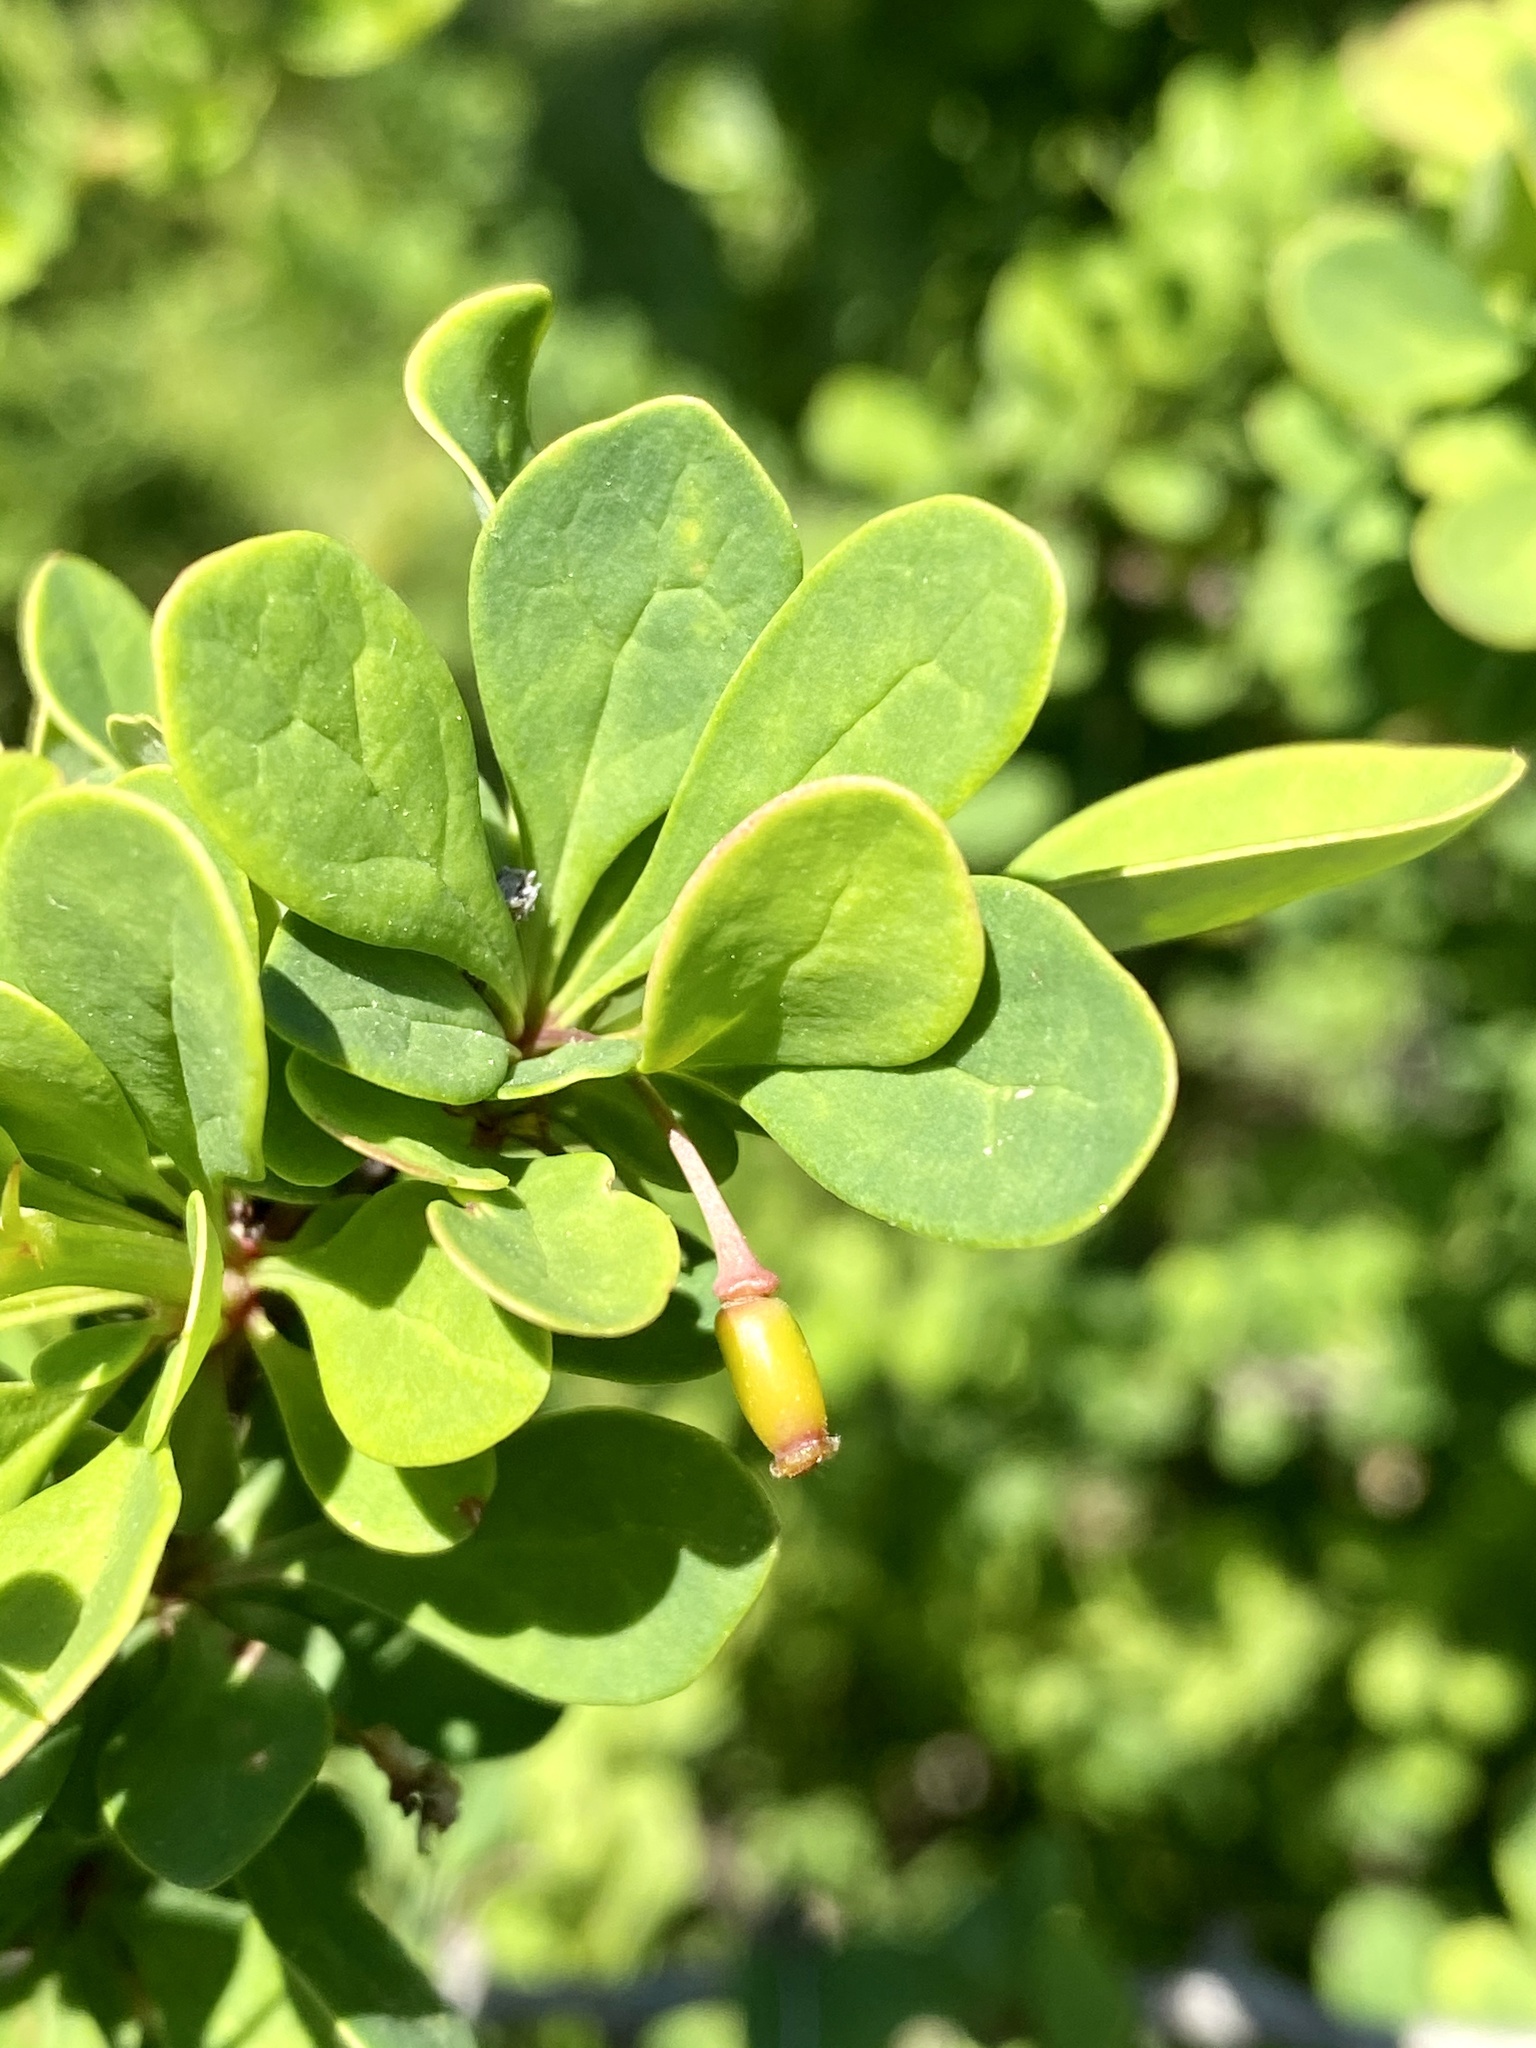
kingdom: Plantae
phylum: Tracheophyta
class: Magnoliopsida
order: Ranunculales
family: Berberidaceae
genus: Berberis
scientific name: Berberis thunbergii
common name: Japanese barberry
